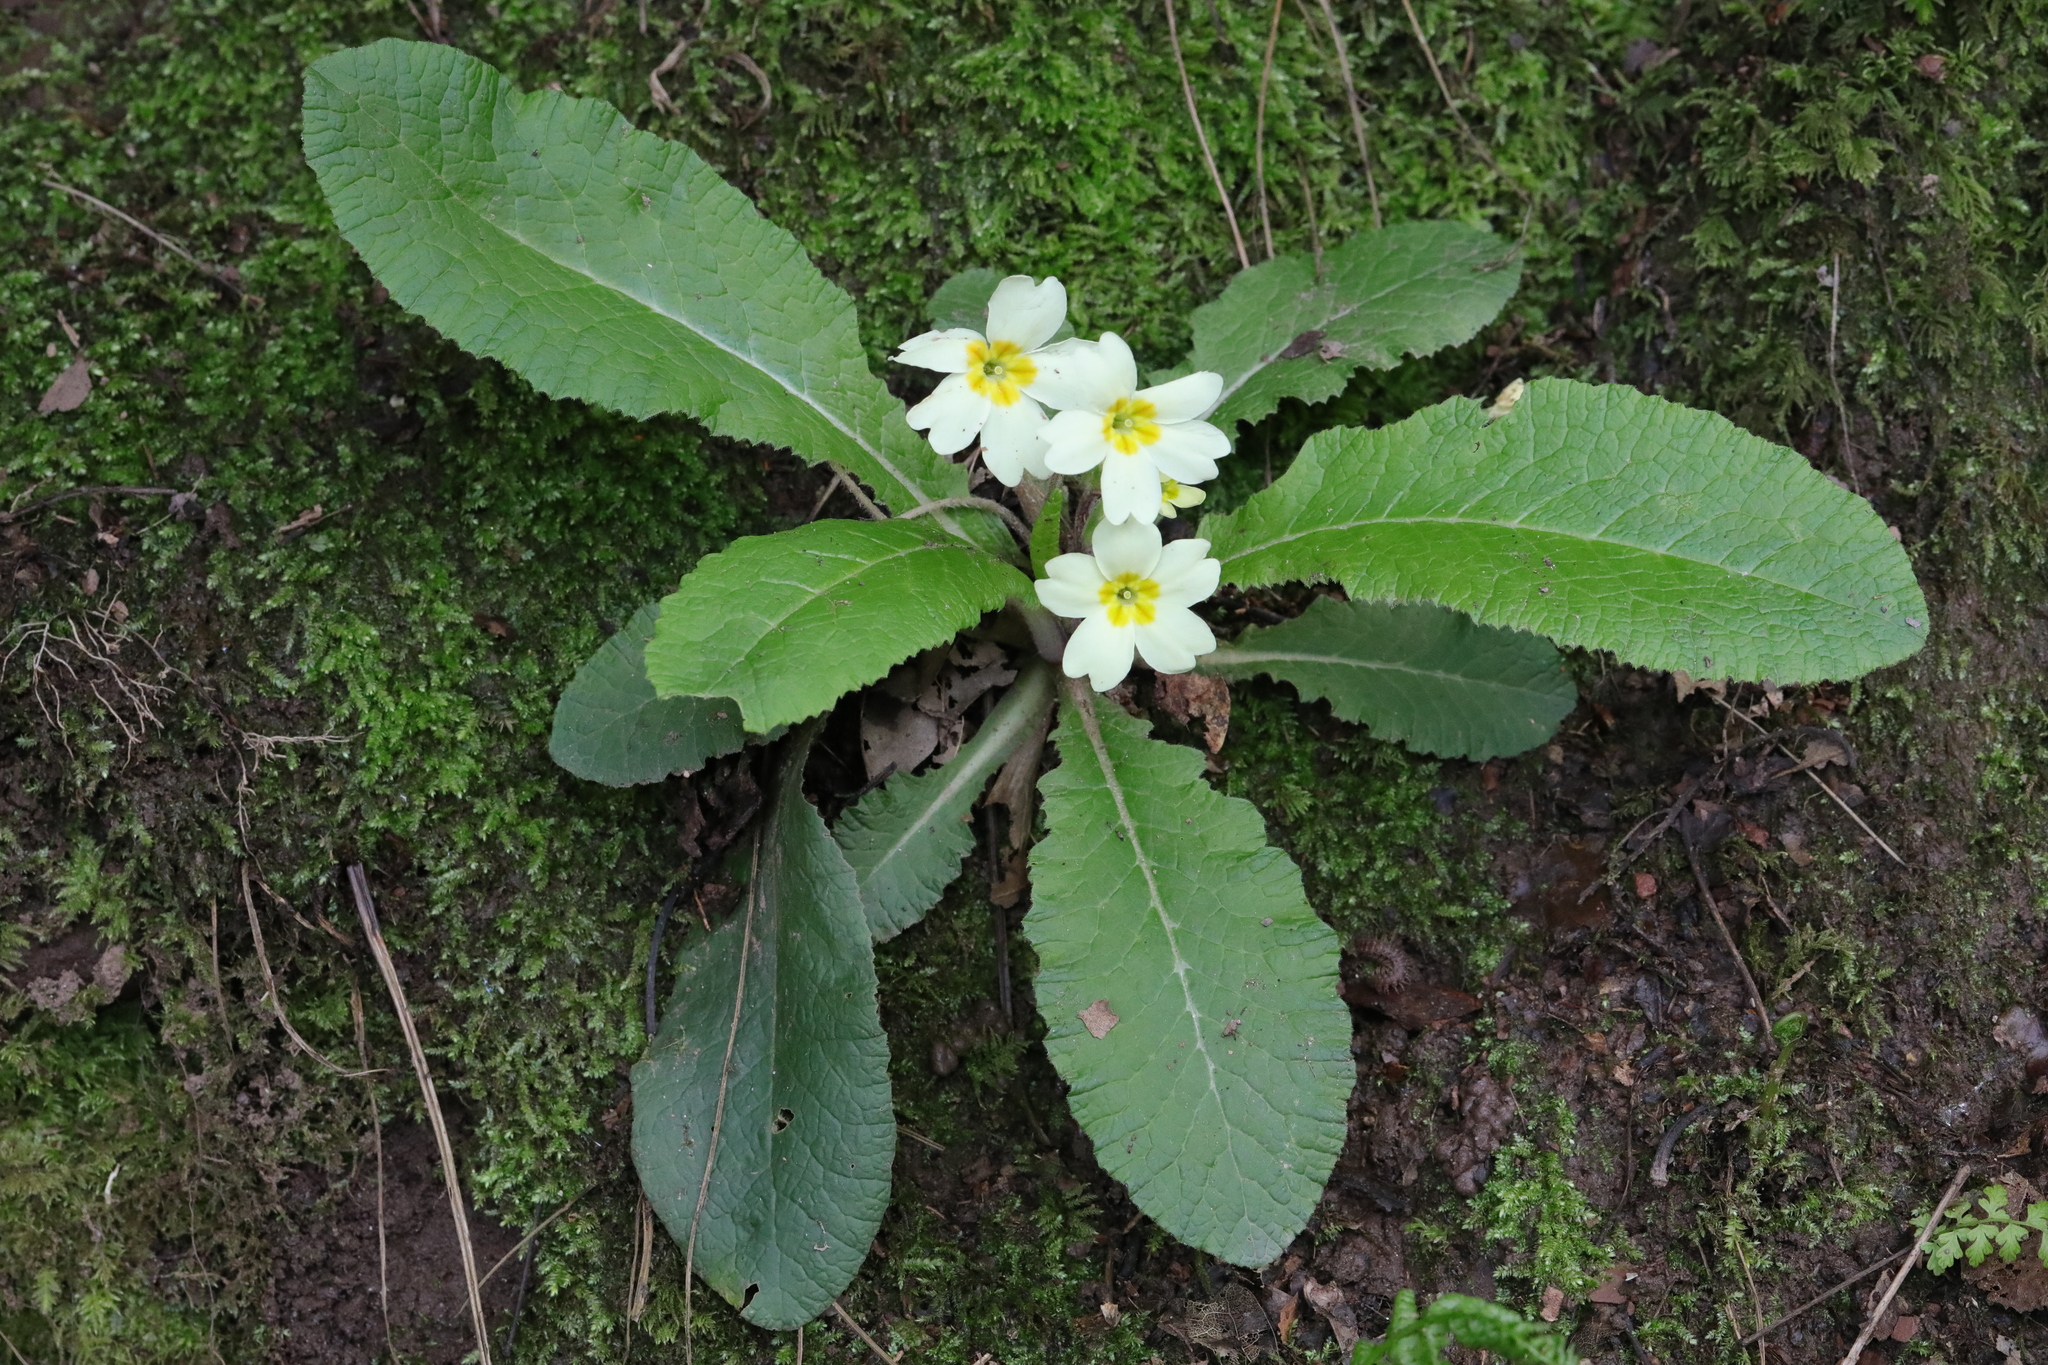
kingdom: Plantae
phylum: Tracheophyta
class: Magnoliopsida
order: Ericales
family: Primulaceae
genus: Primula
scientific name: Primula vulgaris
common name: Primrose
